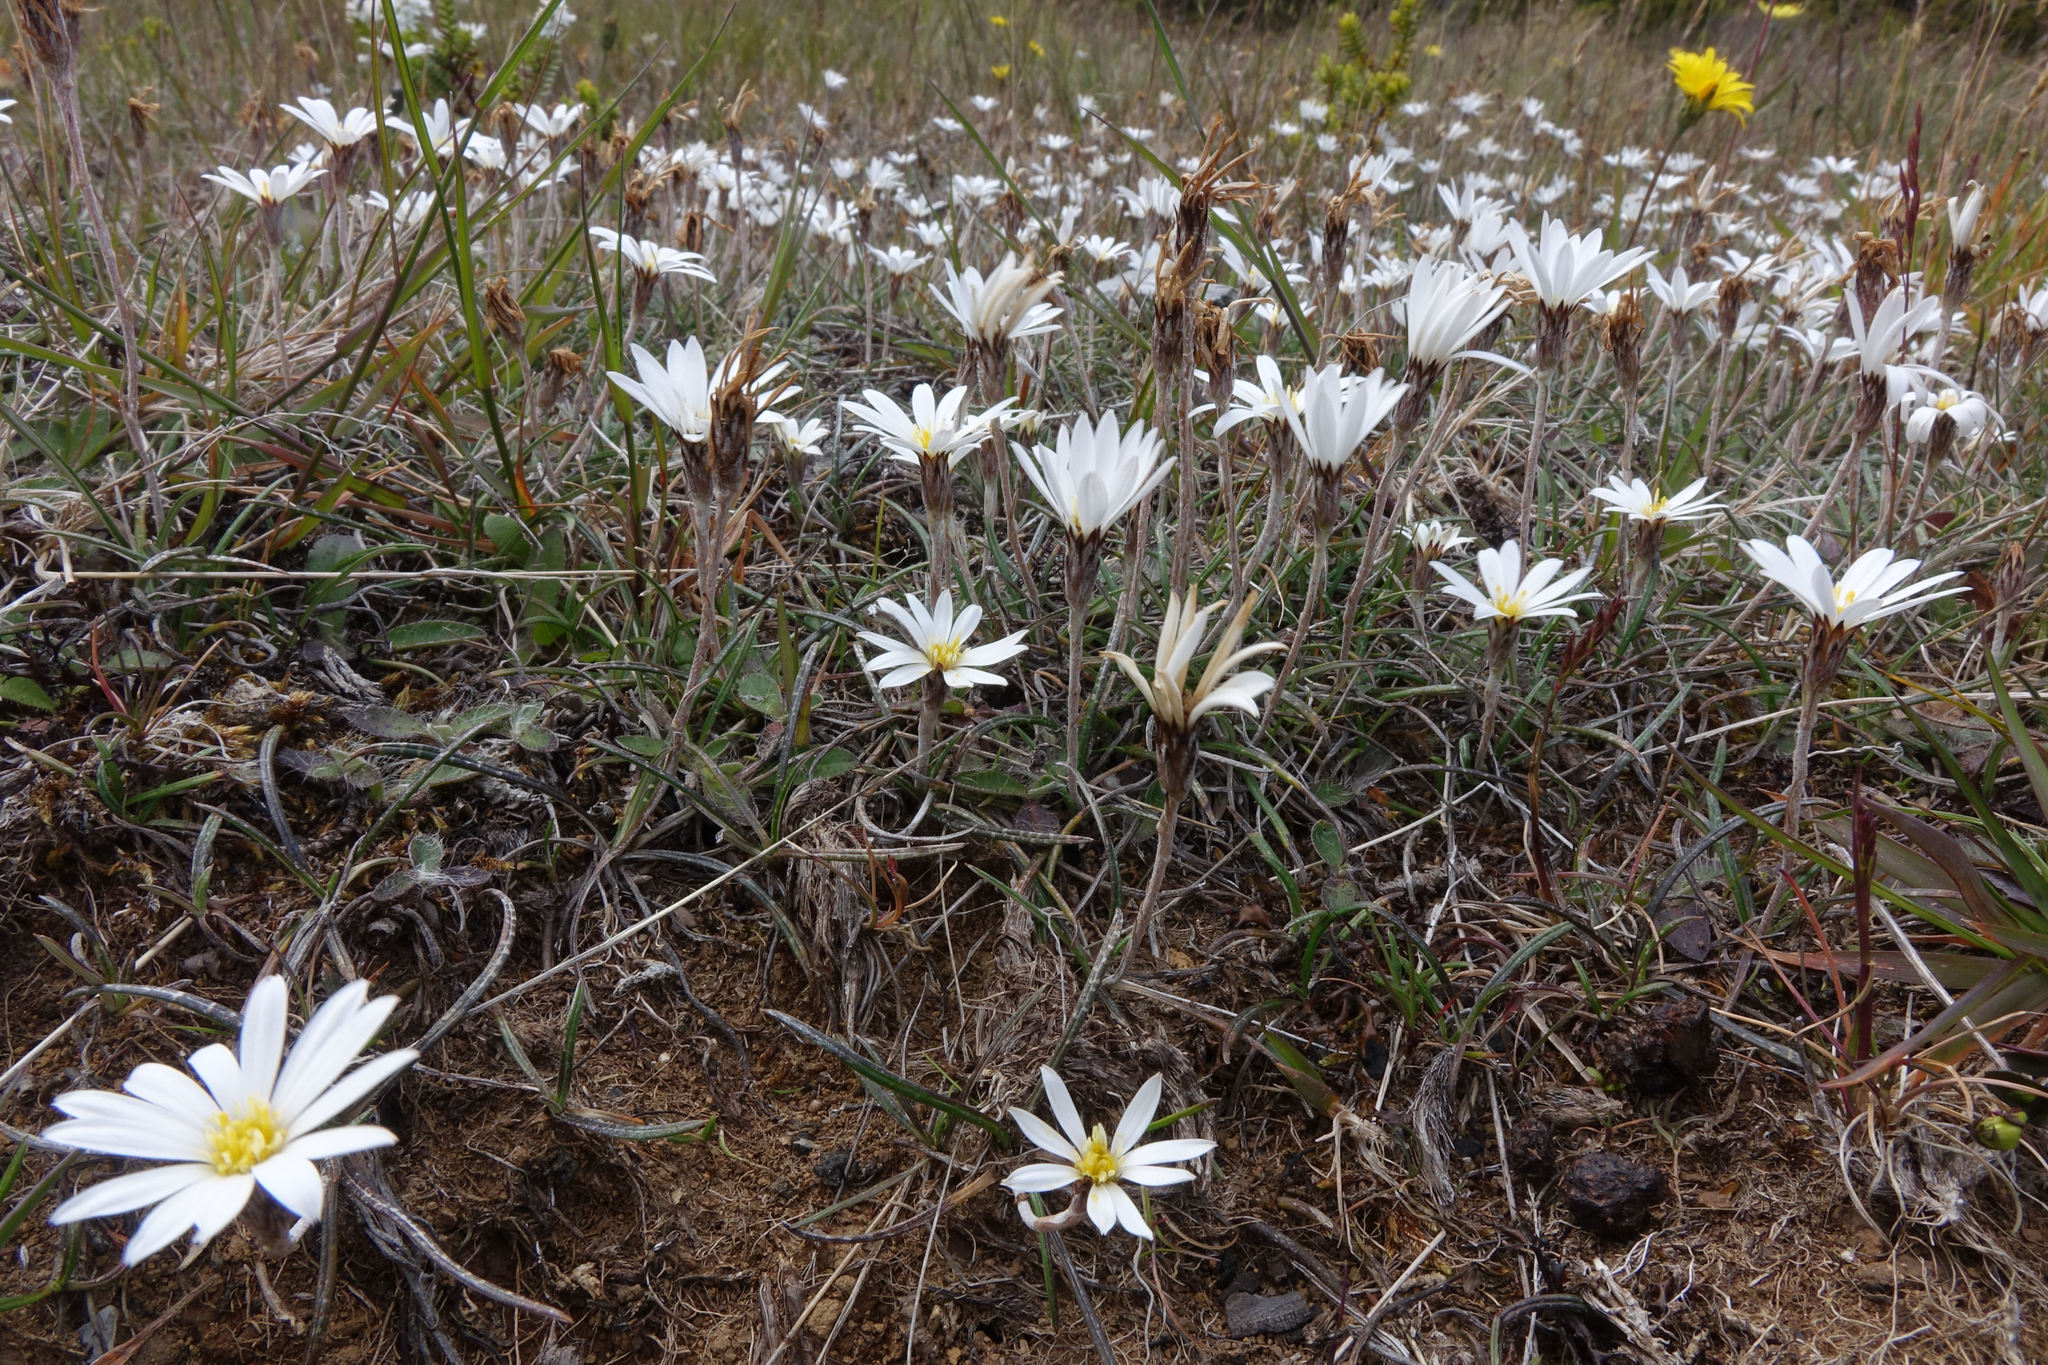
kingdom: Plantae
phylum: Tracheophyta
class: Magnoliopsida
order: Asterales
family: Asteraceae
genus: Celmisia
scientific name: Celmisia gracilenta
